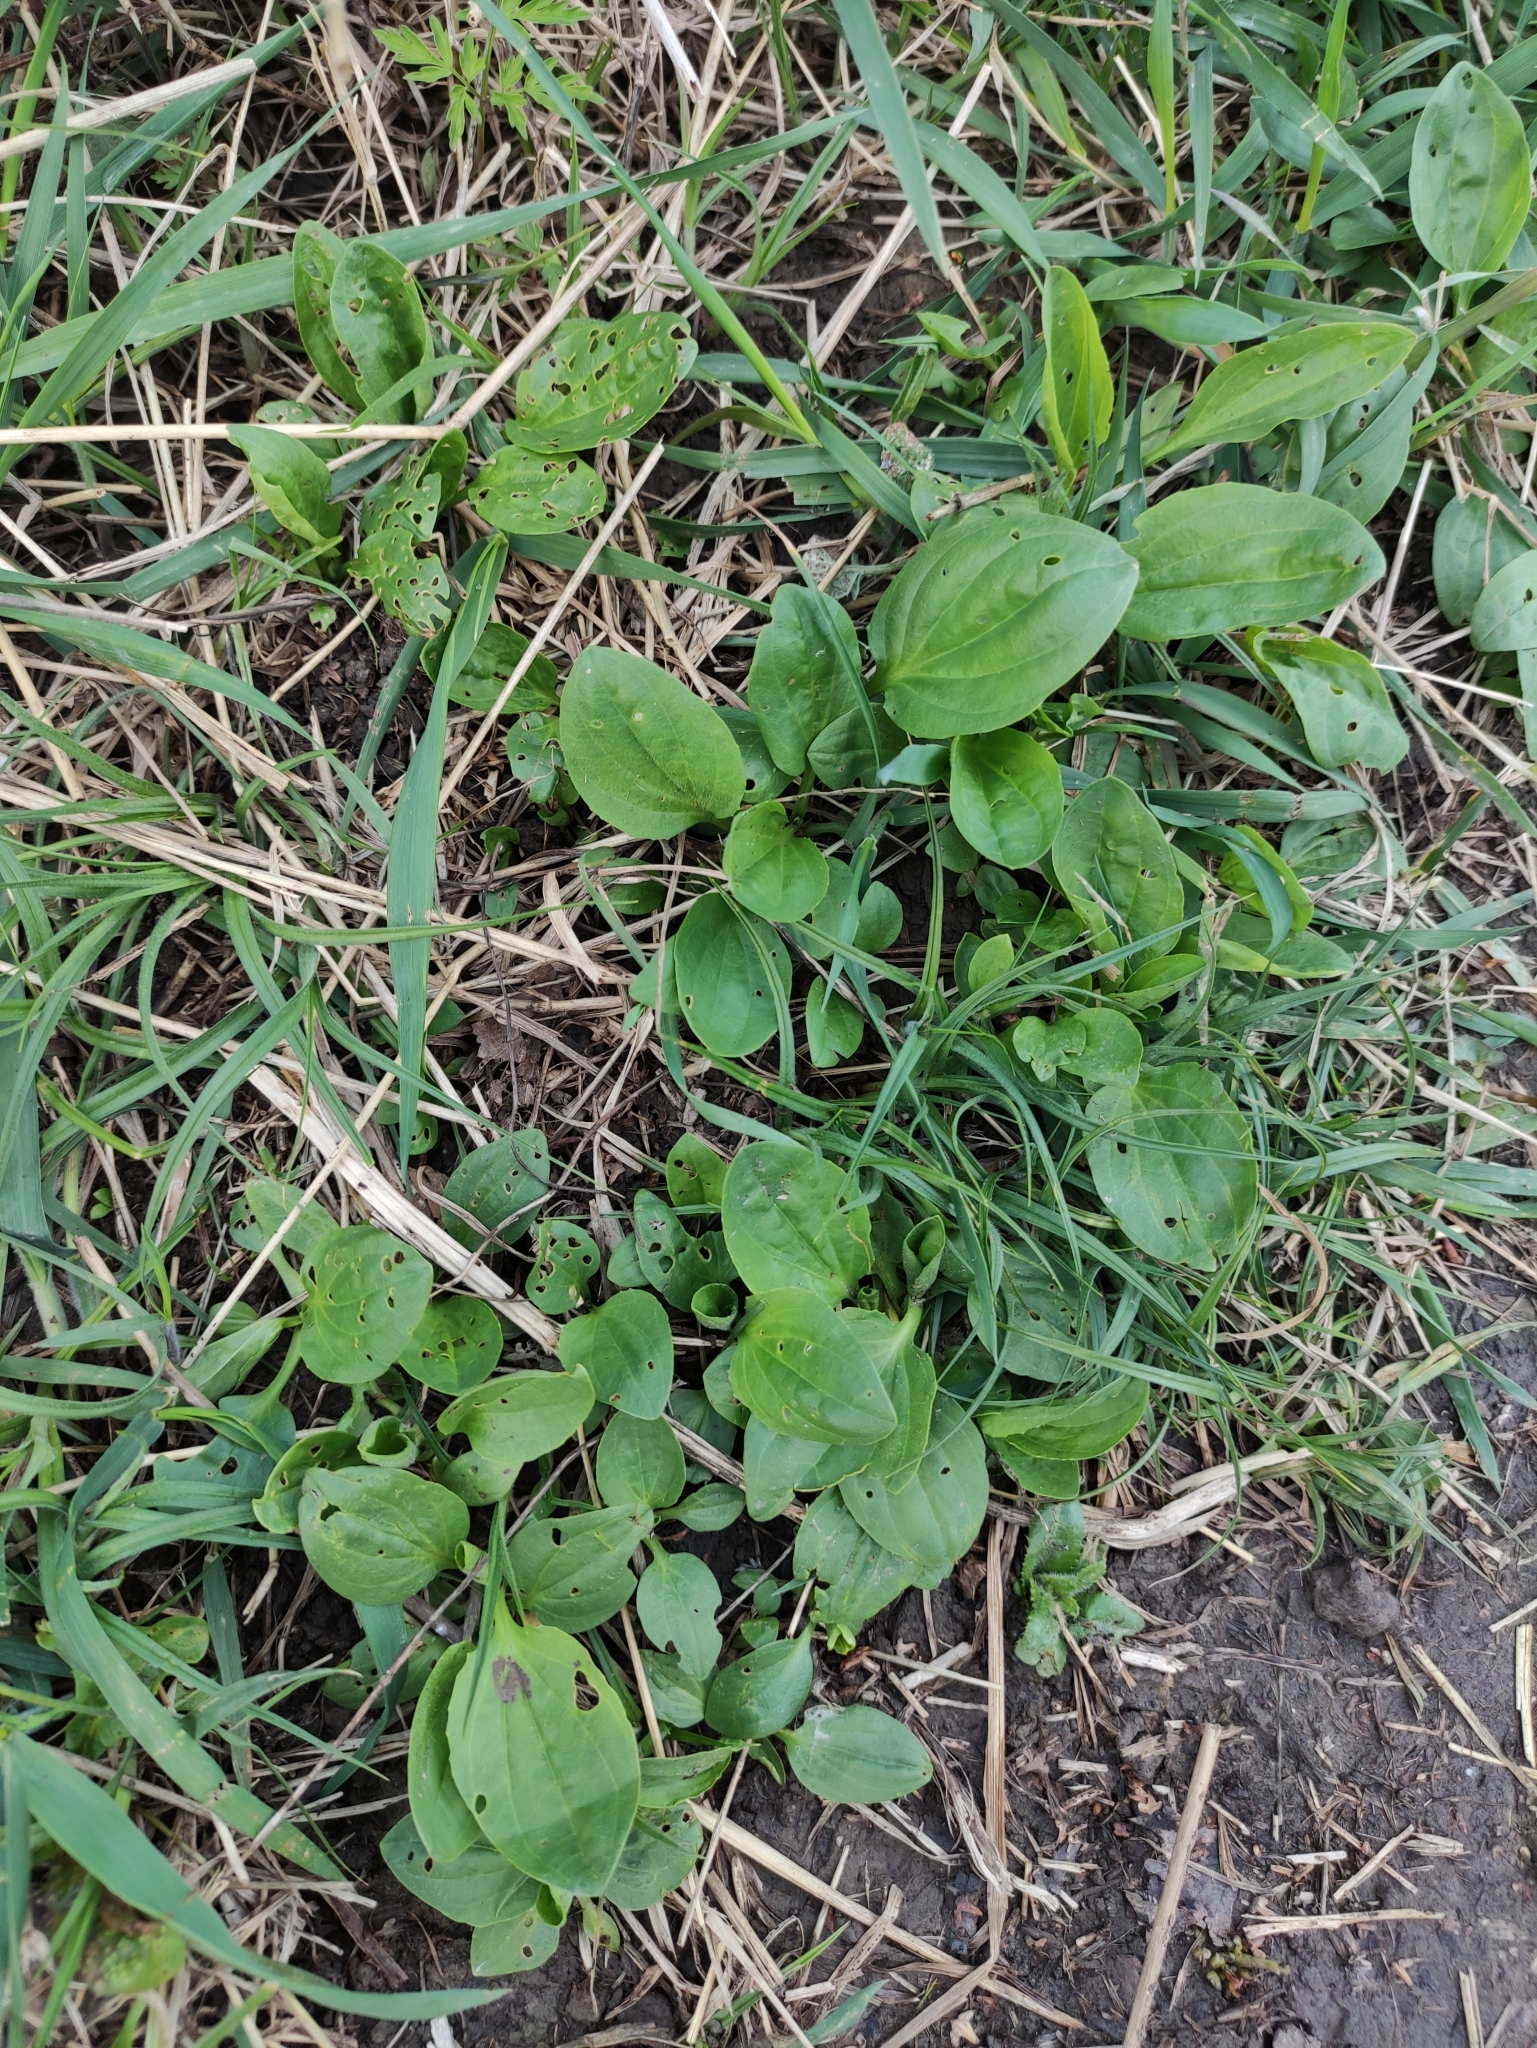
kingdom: Plantae
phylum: Tracheophyta
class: Magnoliopsida
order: Lamiales
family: Plantaginaceae
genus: Plantago
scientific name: Plantago major
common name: Common plantain
